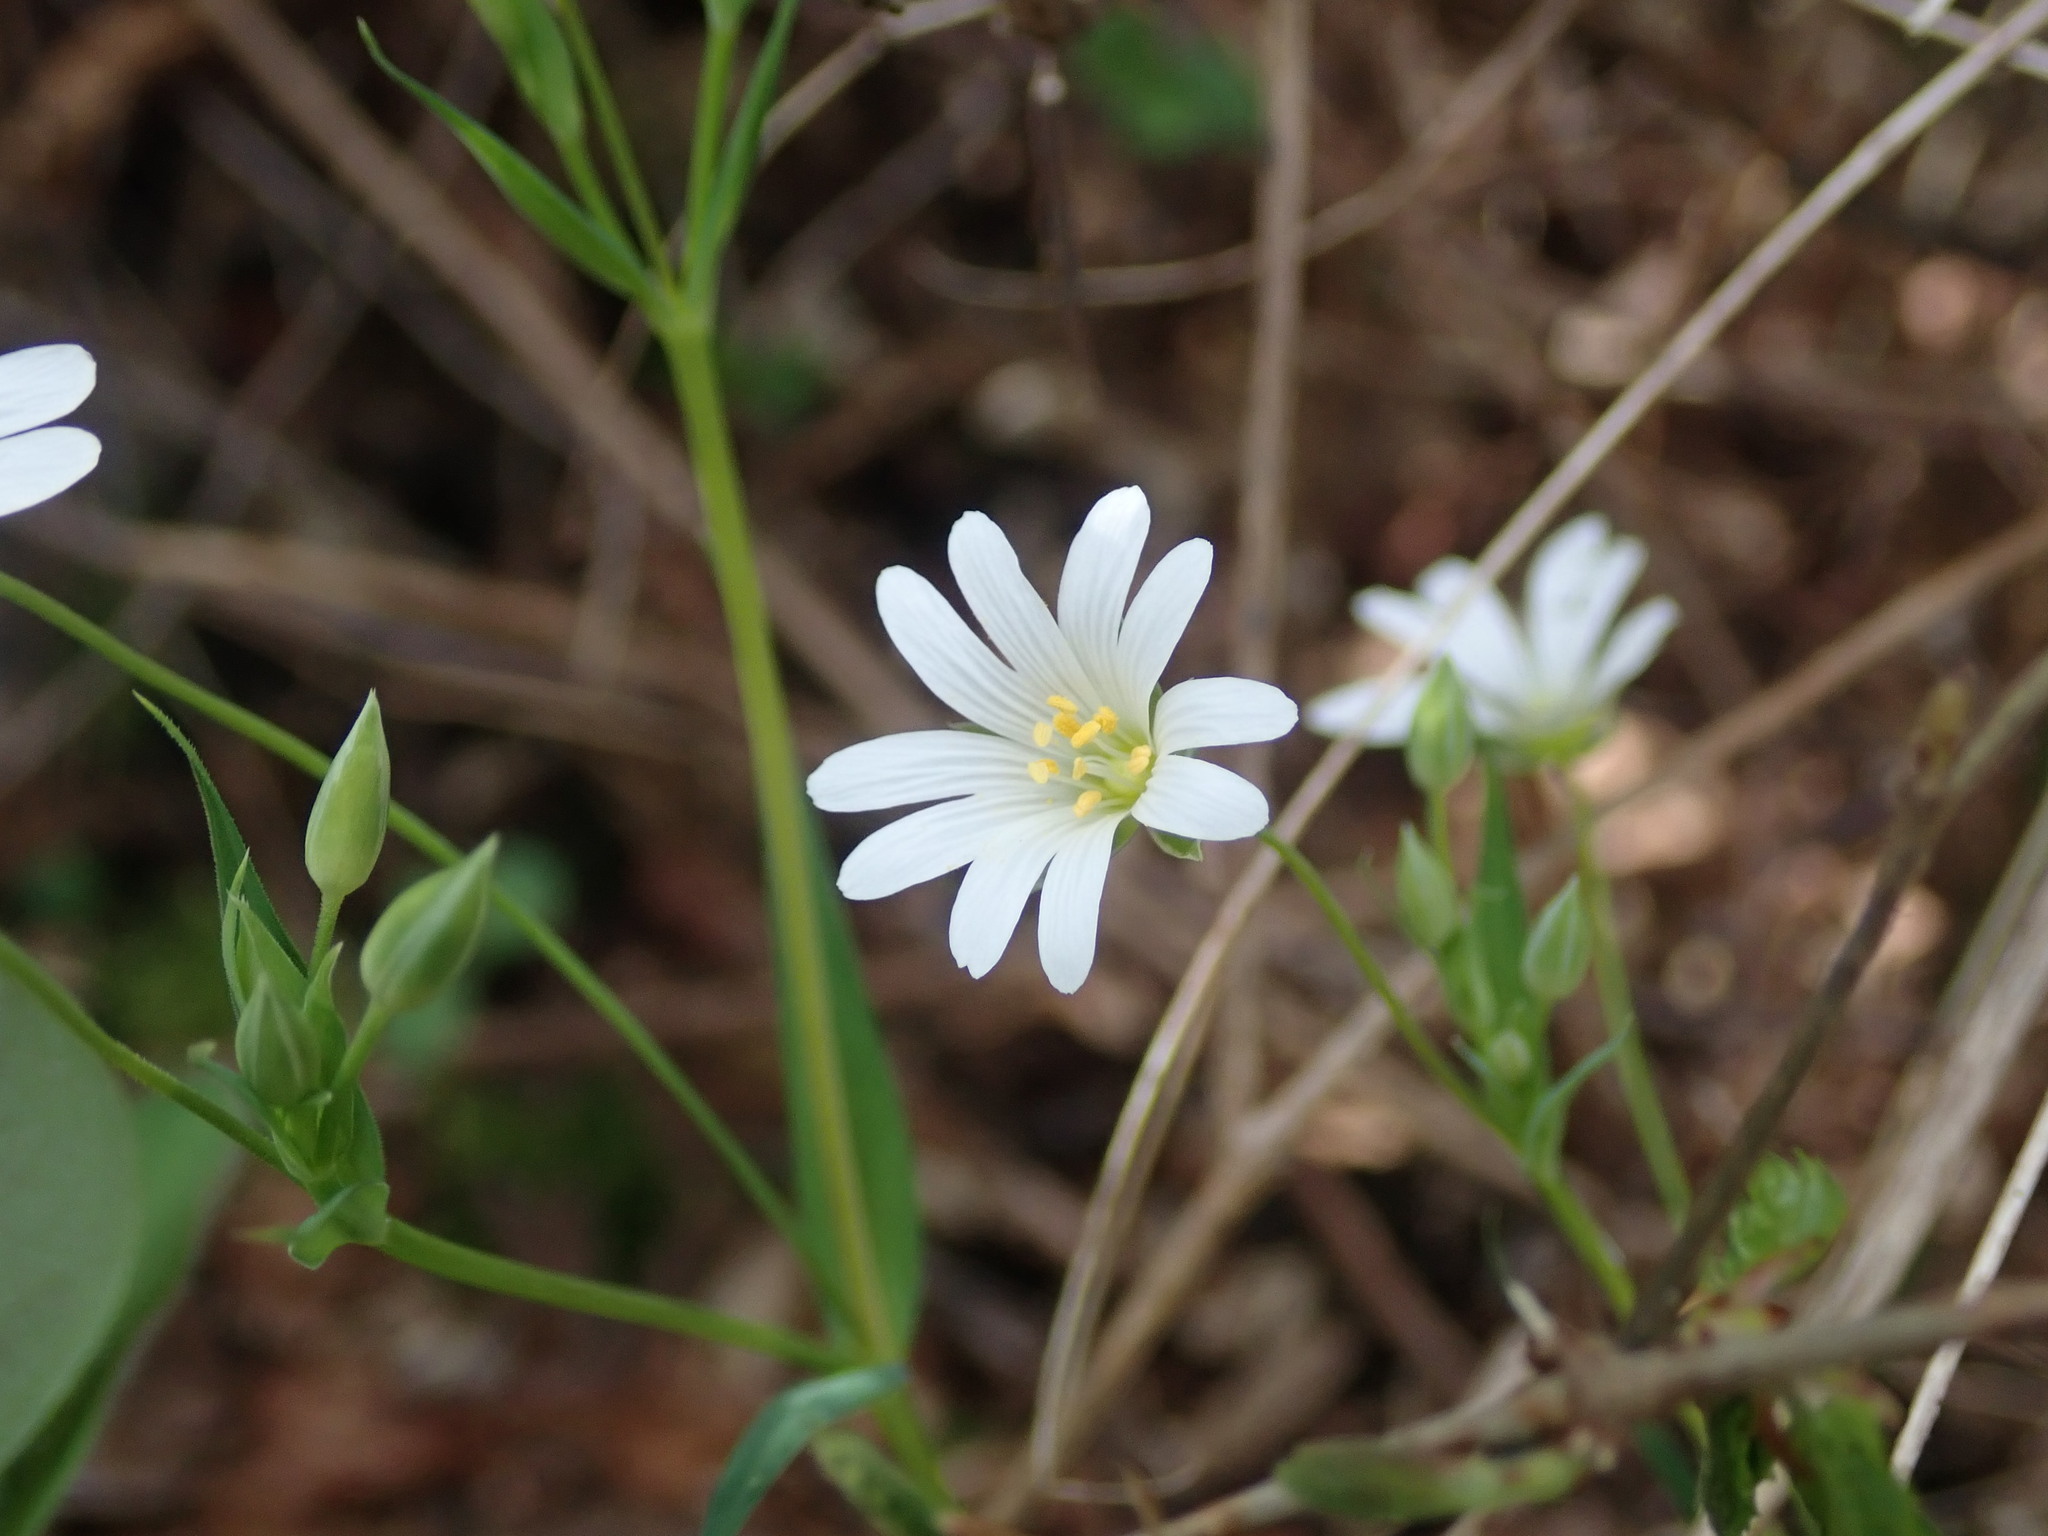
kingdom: Plantae
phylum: Tracheophyta
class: Magnoliopsida
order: Caryophyllales
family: Caryophyllaceae
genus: Rabelera
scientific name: Rabelera holostea
